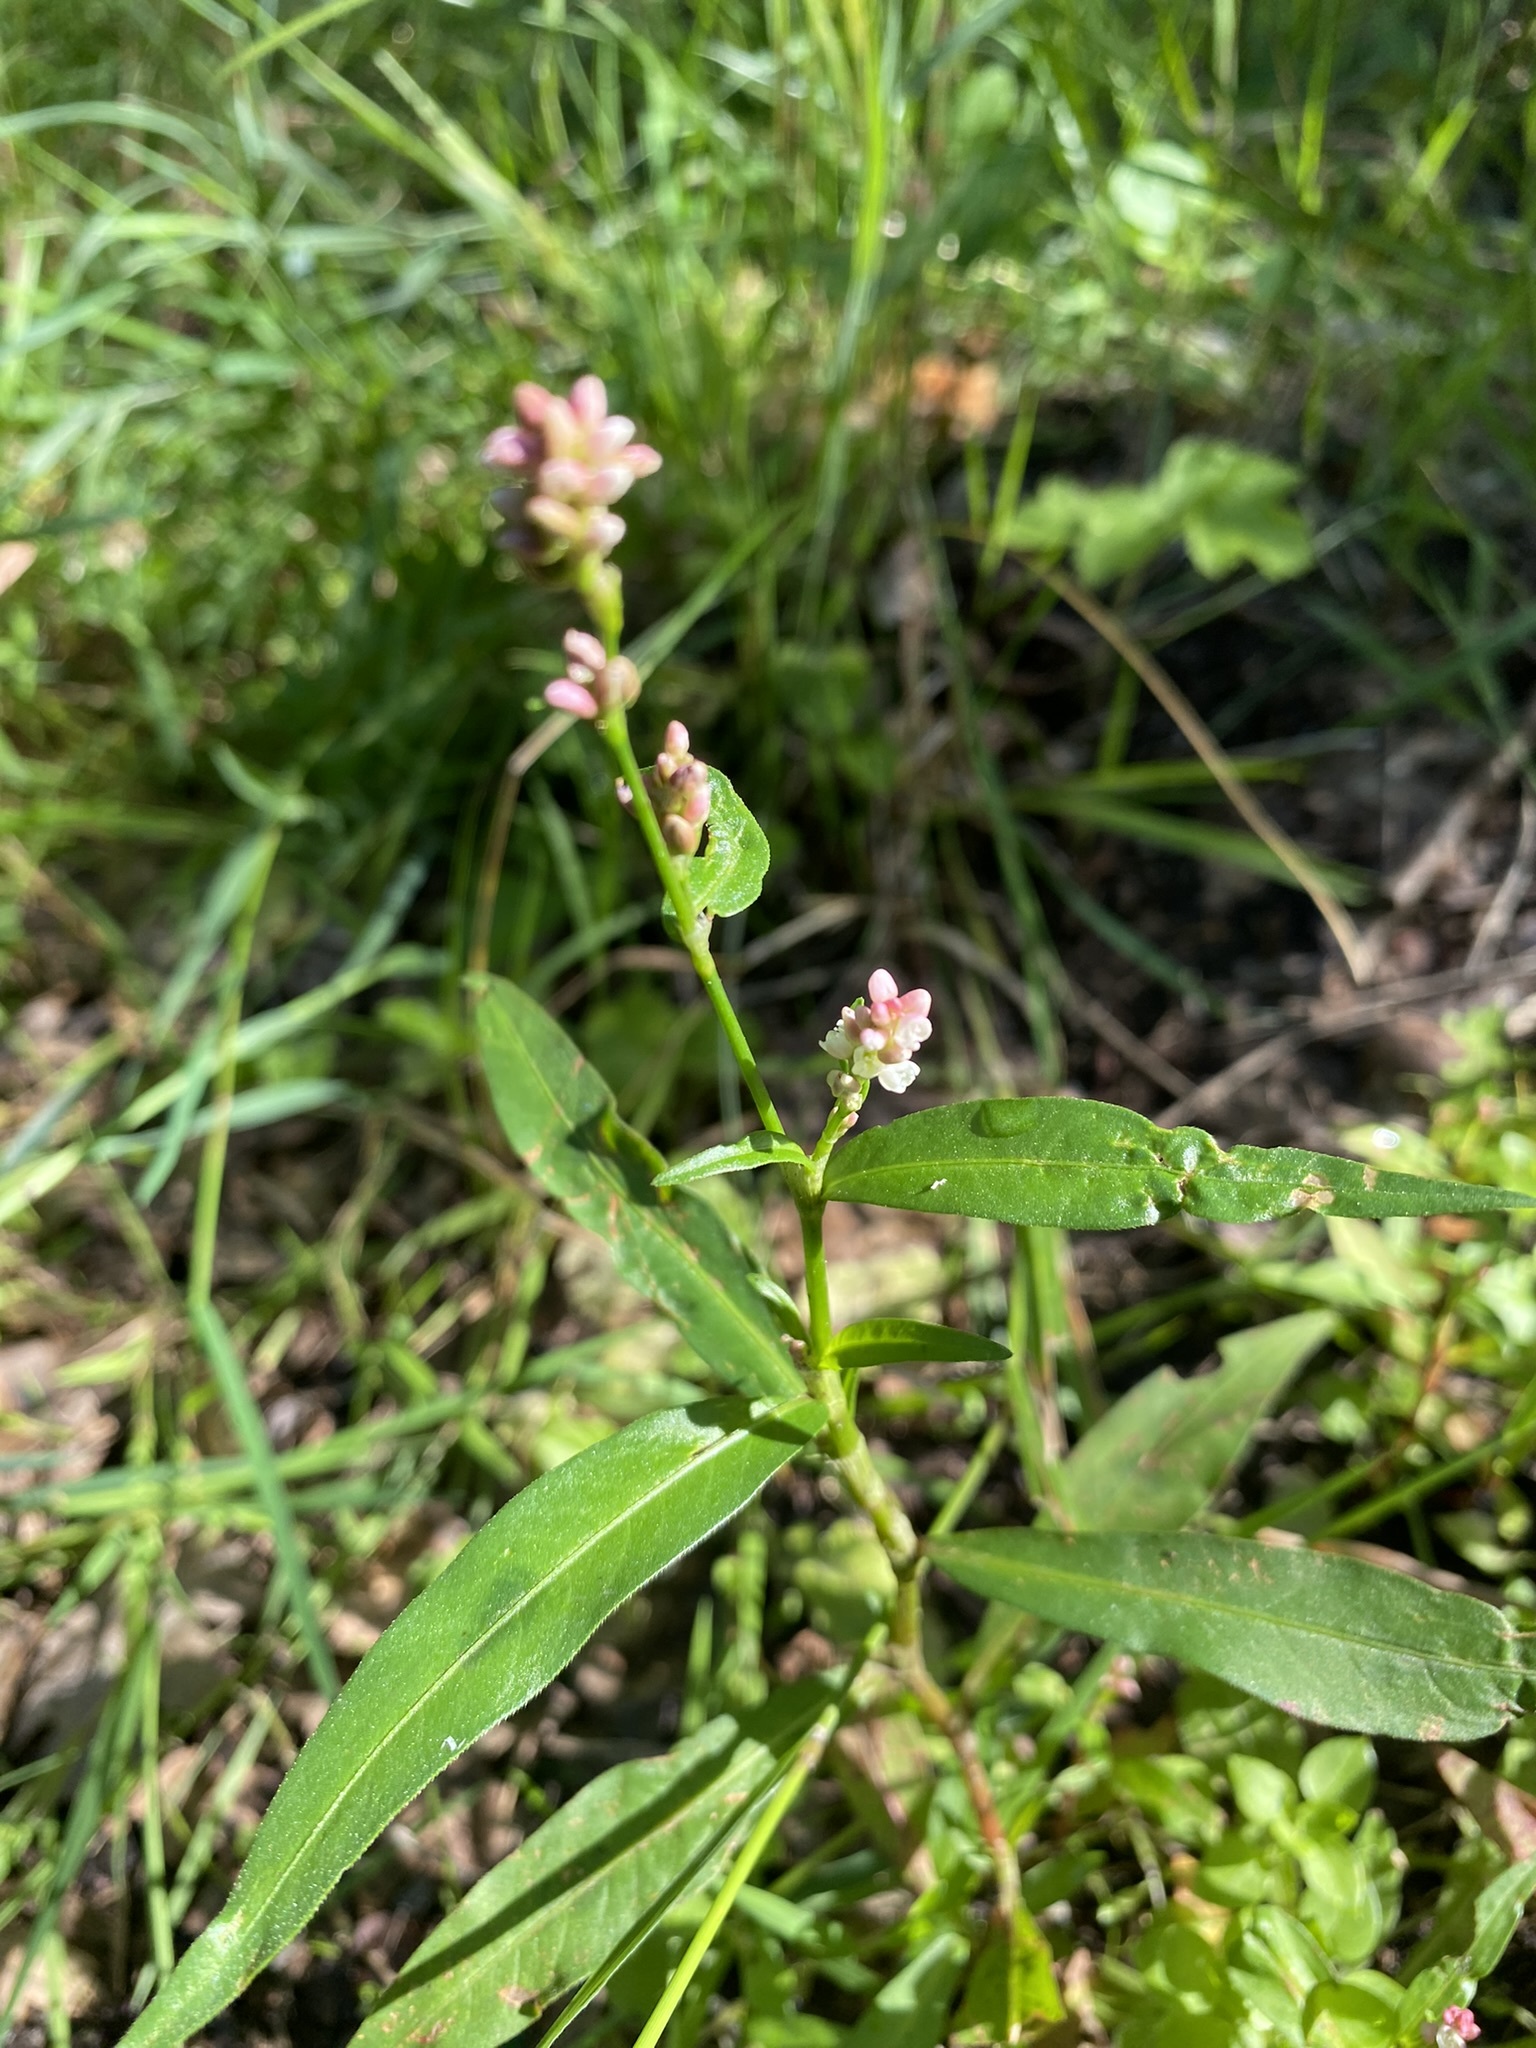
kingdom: Plantae
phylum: Tracheophyta
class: Magnoliopsida
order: Caryophyllales
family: Polygonaceae
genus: Persicaria
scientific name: Persicaria maculosa
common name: Redshank
